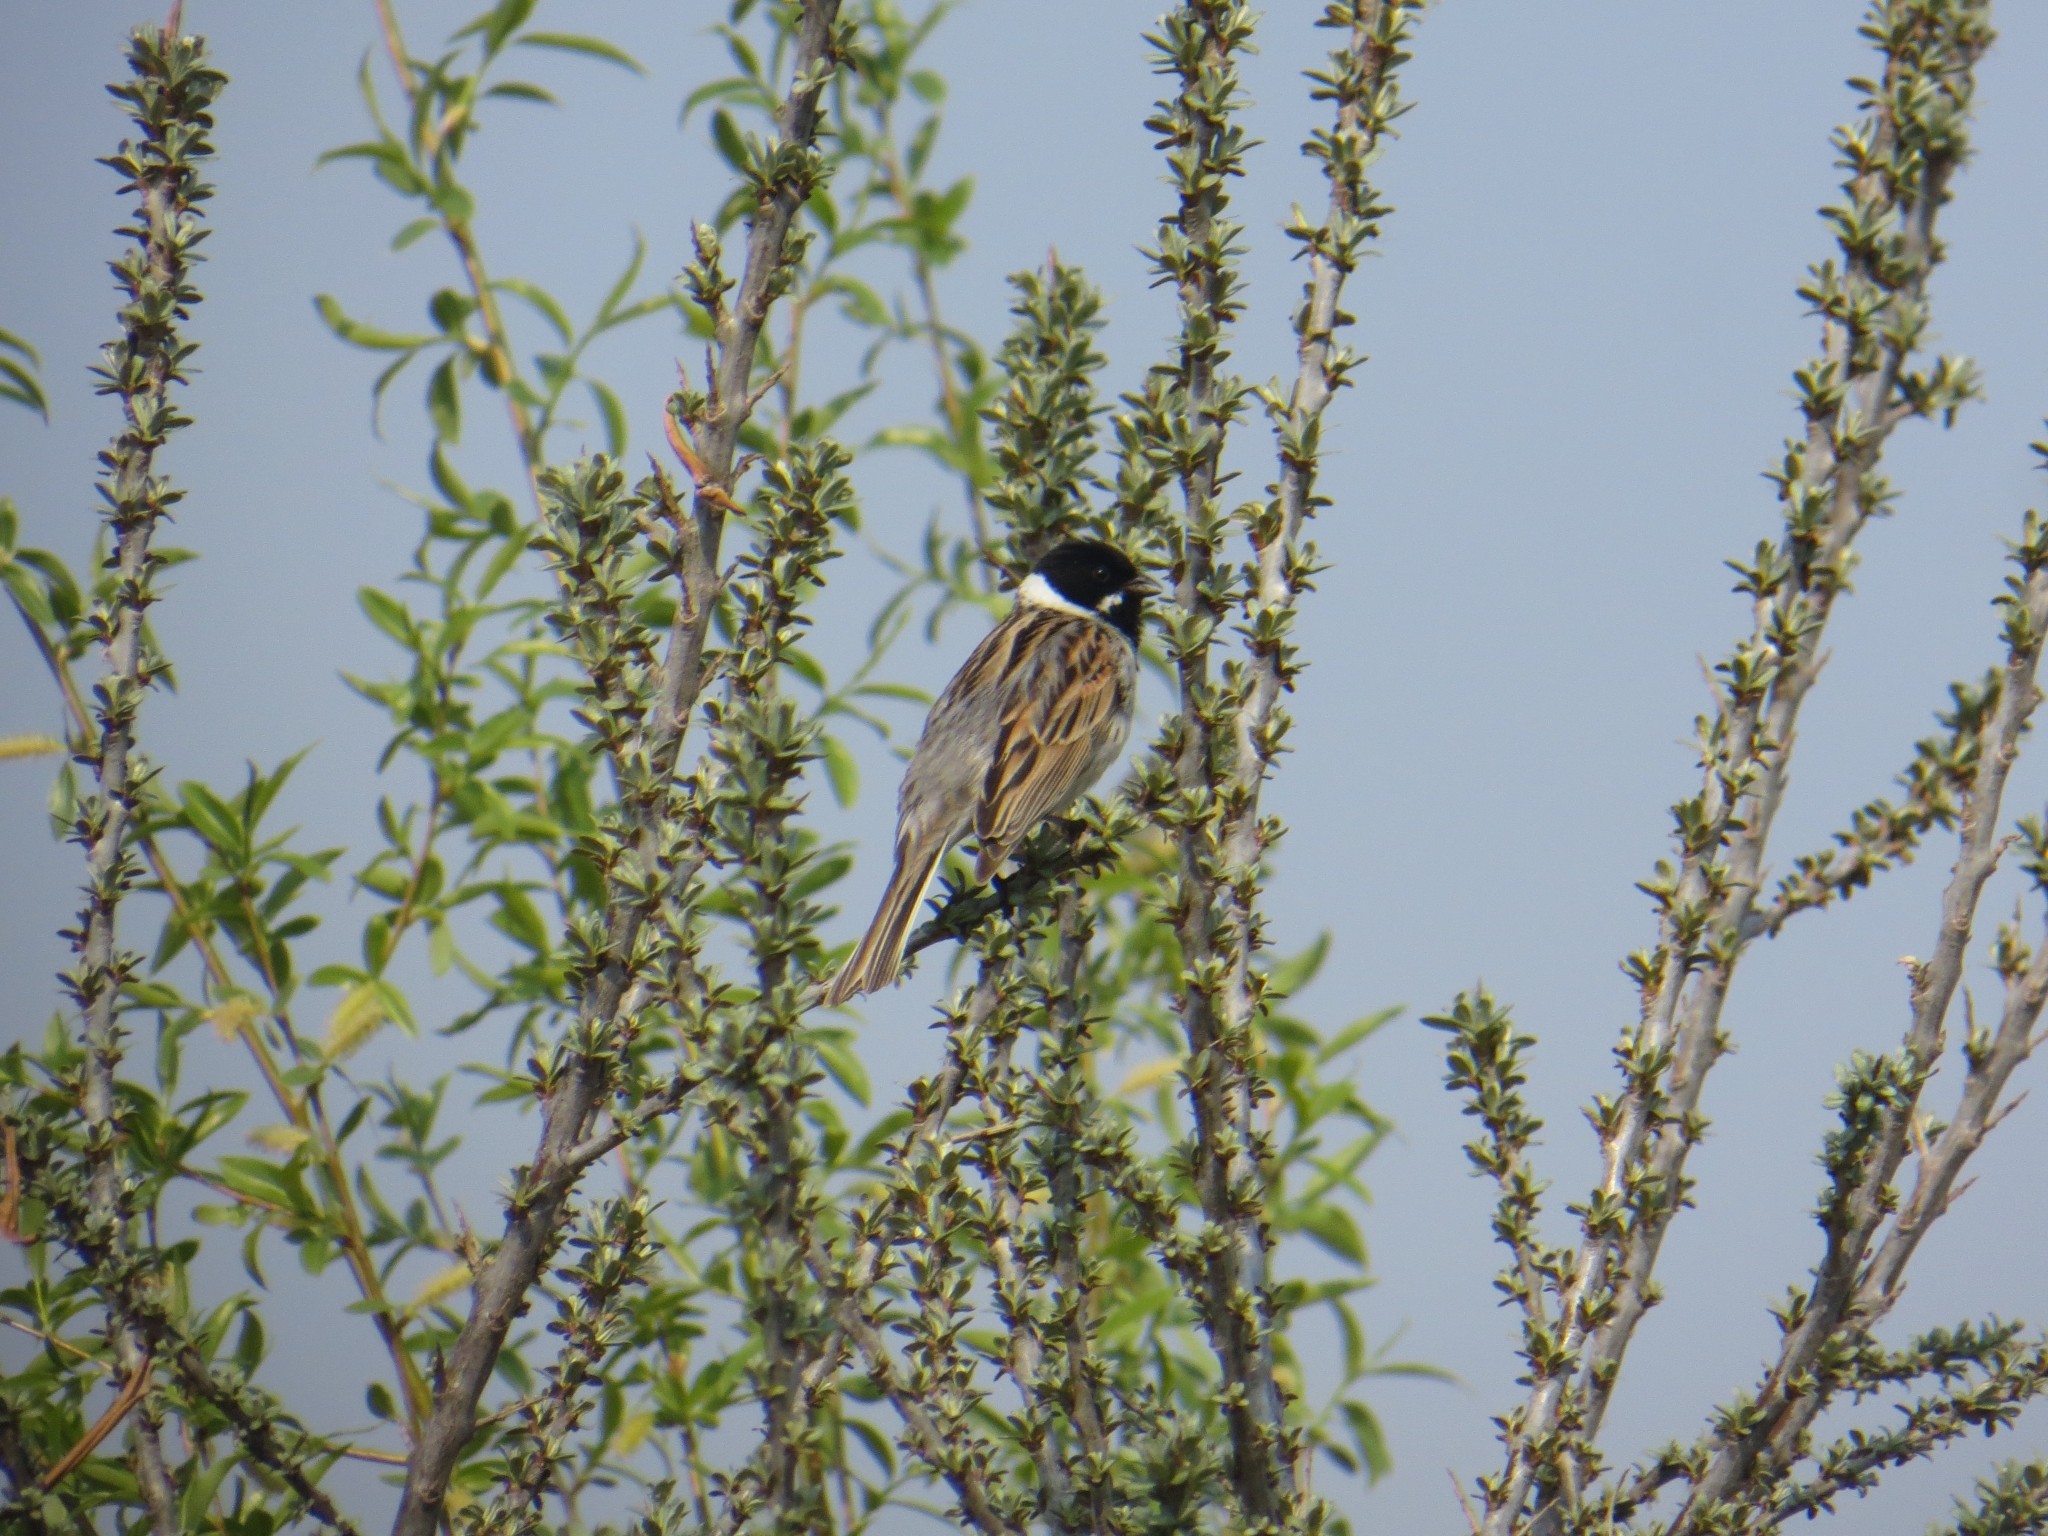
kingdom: Animalia
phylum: Chordata
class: Aves
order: Passeriformes
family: Emberizidae
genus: Emberiza
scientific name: Emberiza schoeniclus
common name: Reed bunting
